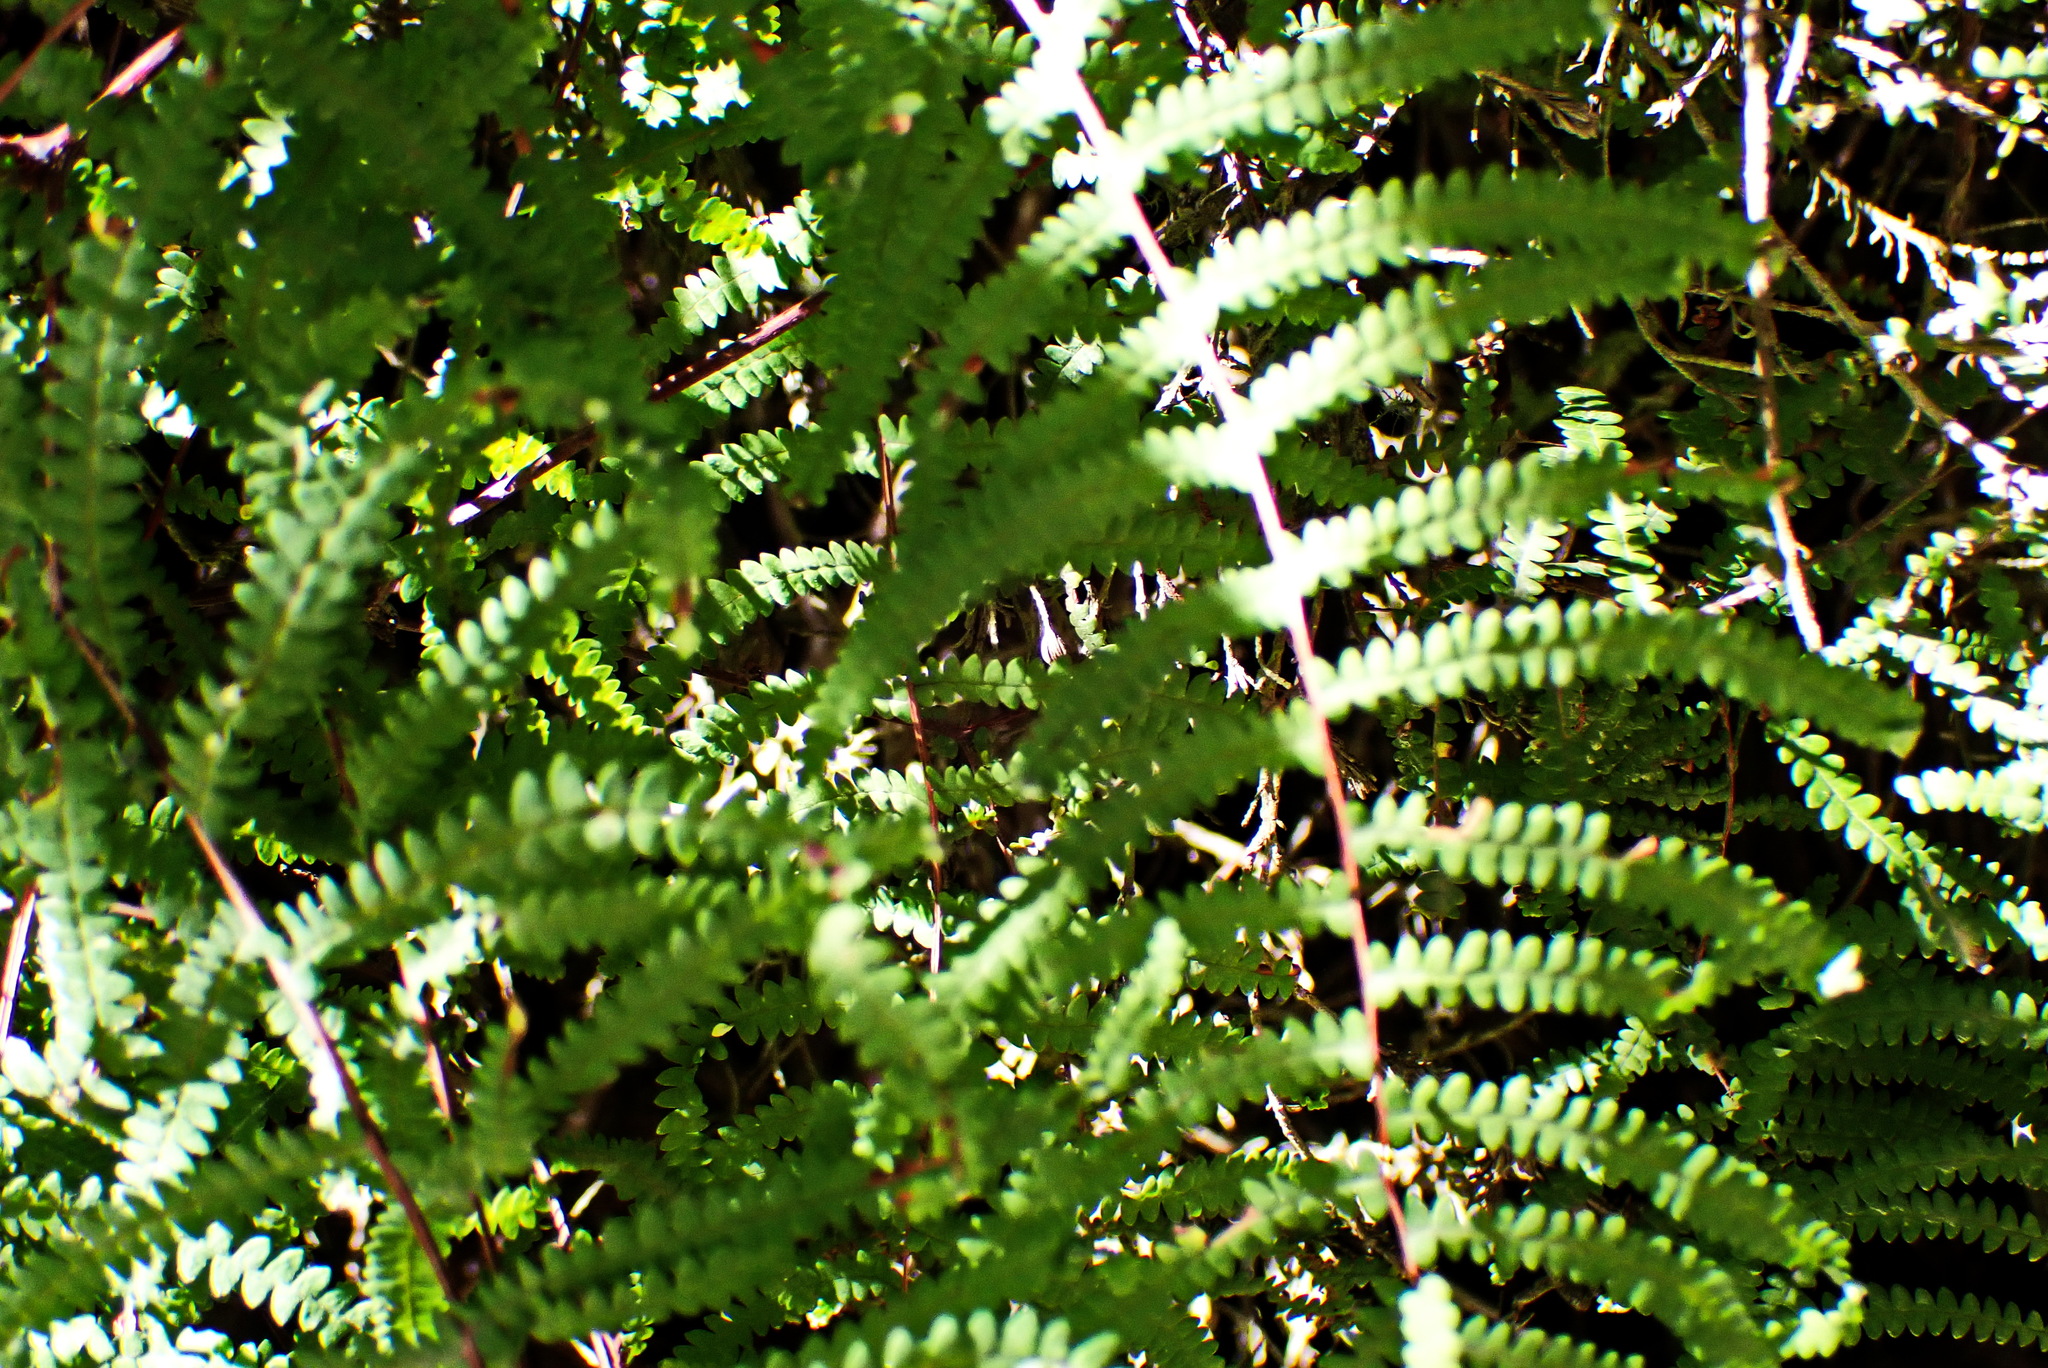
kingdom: Plantae
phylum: Tracheophyta
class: Polypodiopsida
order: Gleicheniales
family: Gleicheniaceae
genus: Gleichenia
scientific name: Gleichenia polypodioides
